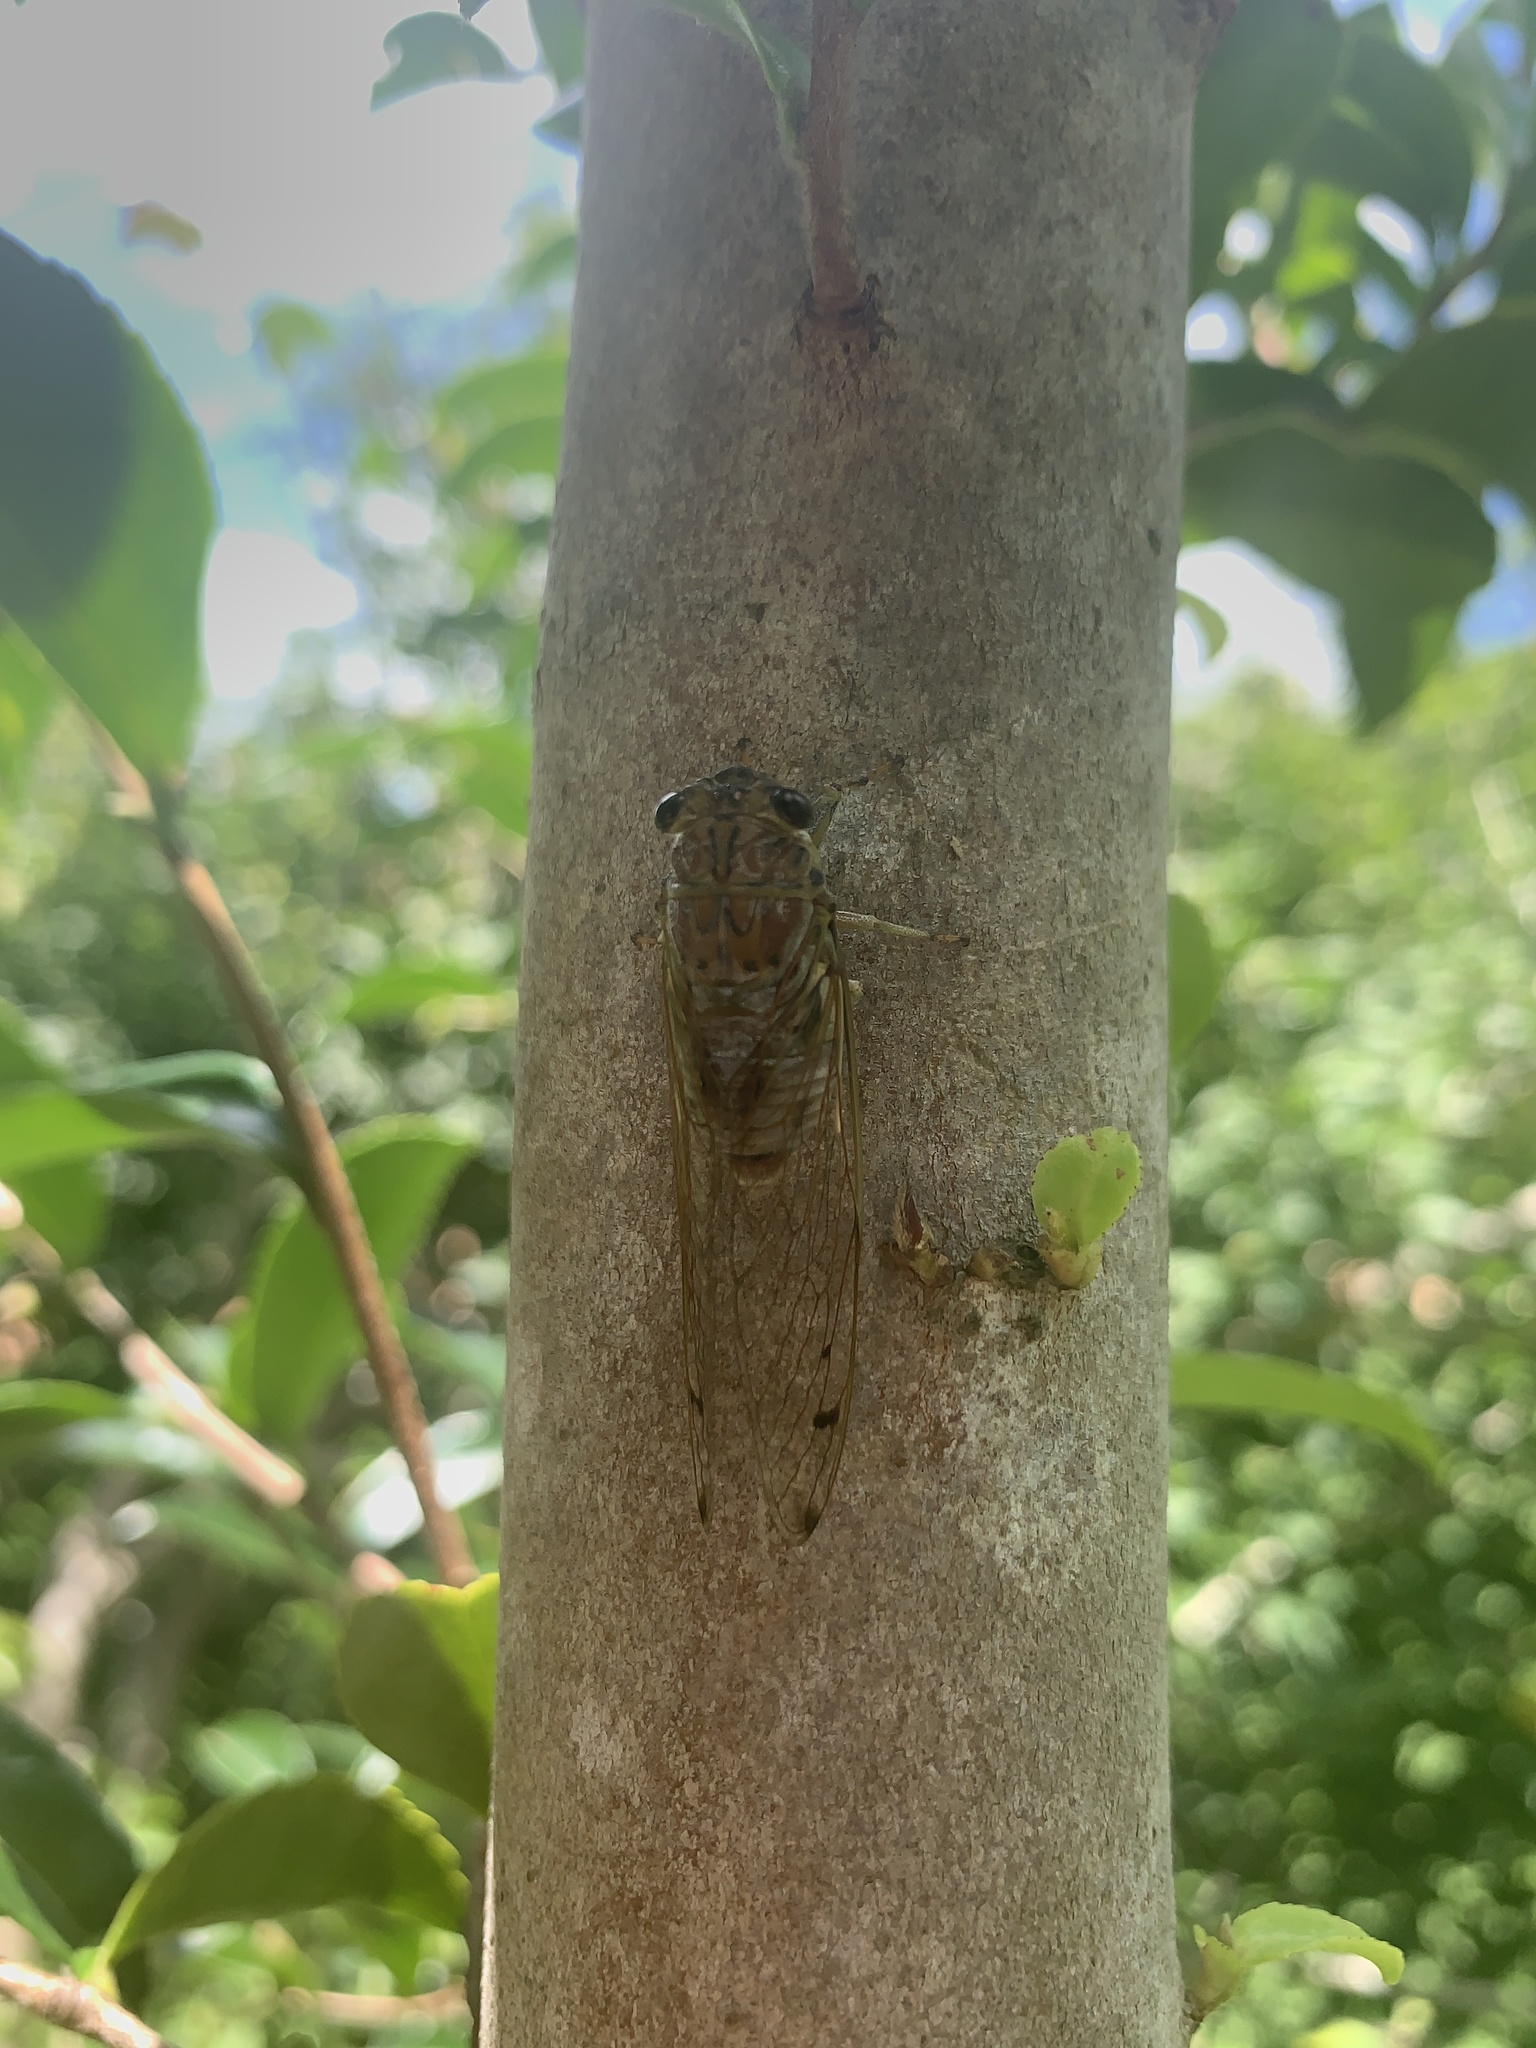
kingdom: Animalia
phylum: Arthropoda
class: Insecta
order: Hemiptera
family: Cicadidae
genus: Tamasa
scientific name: Tamasa tristigma
